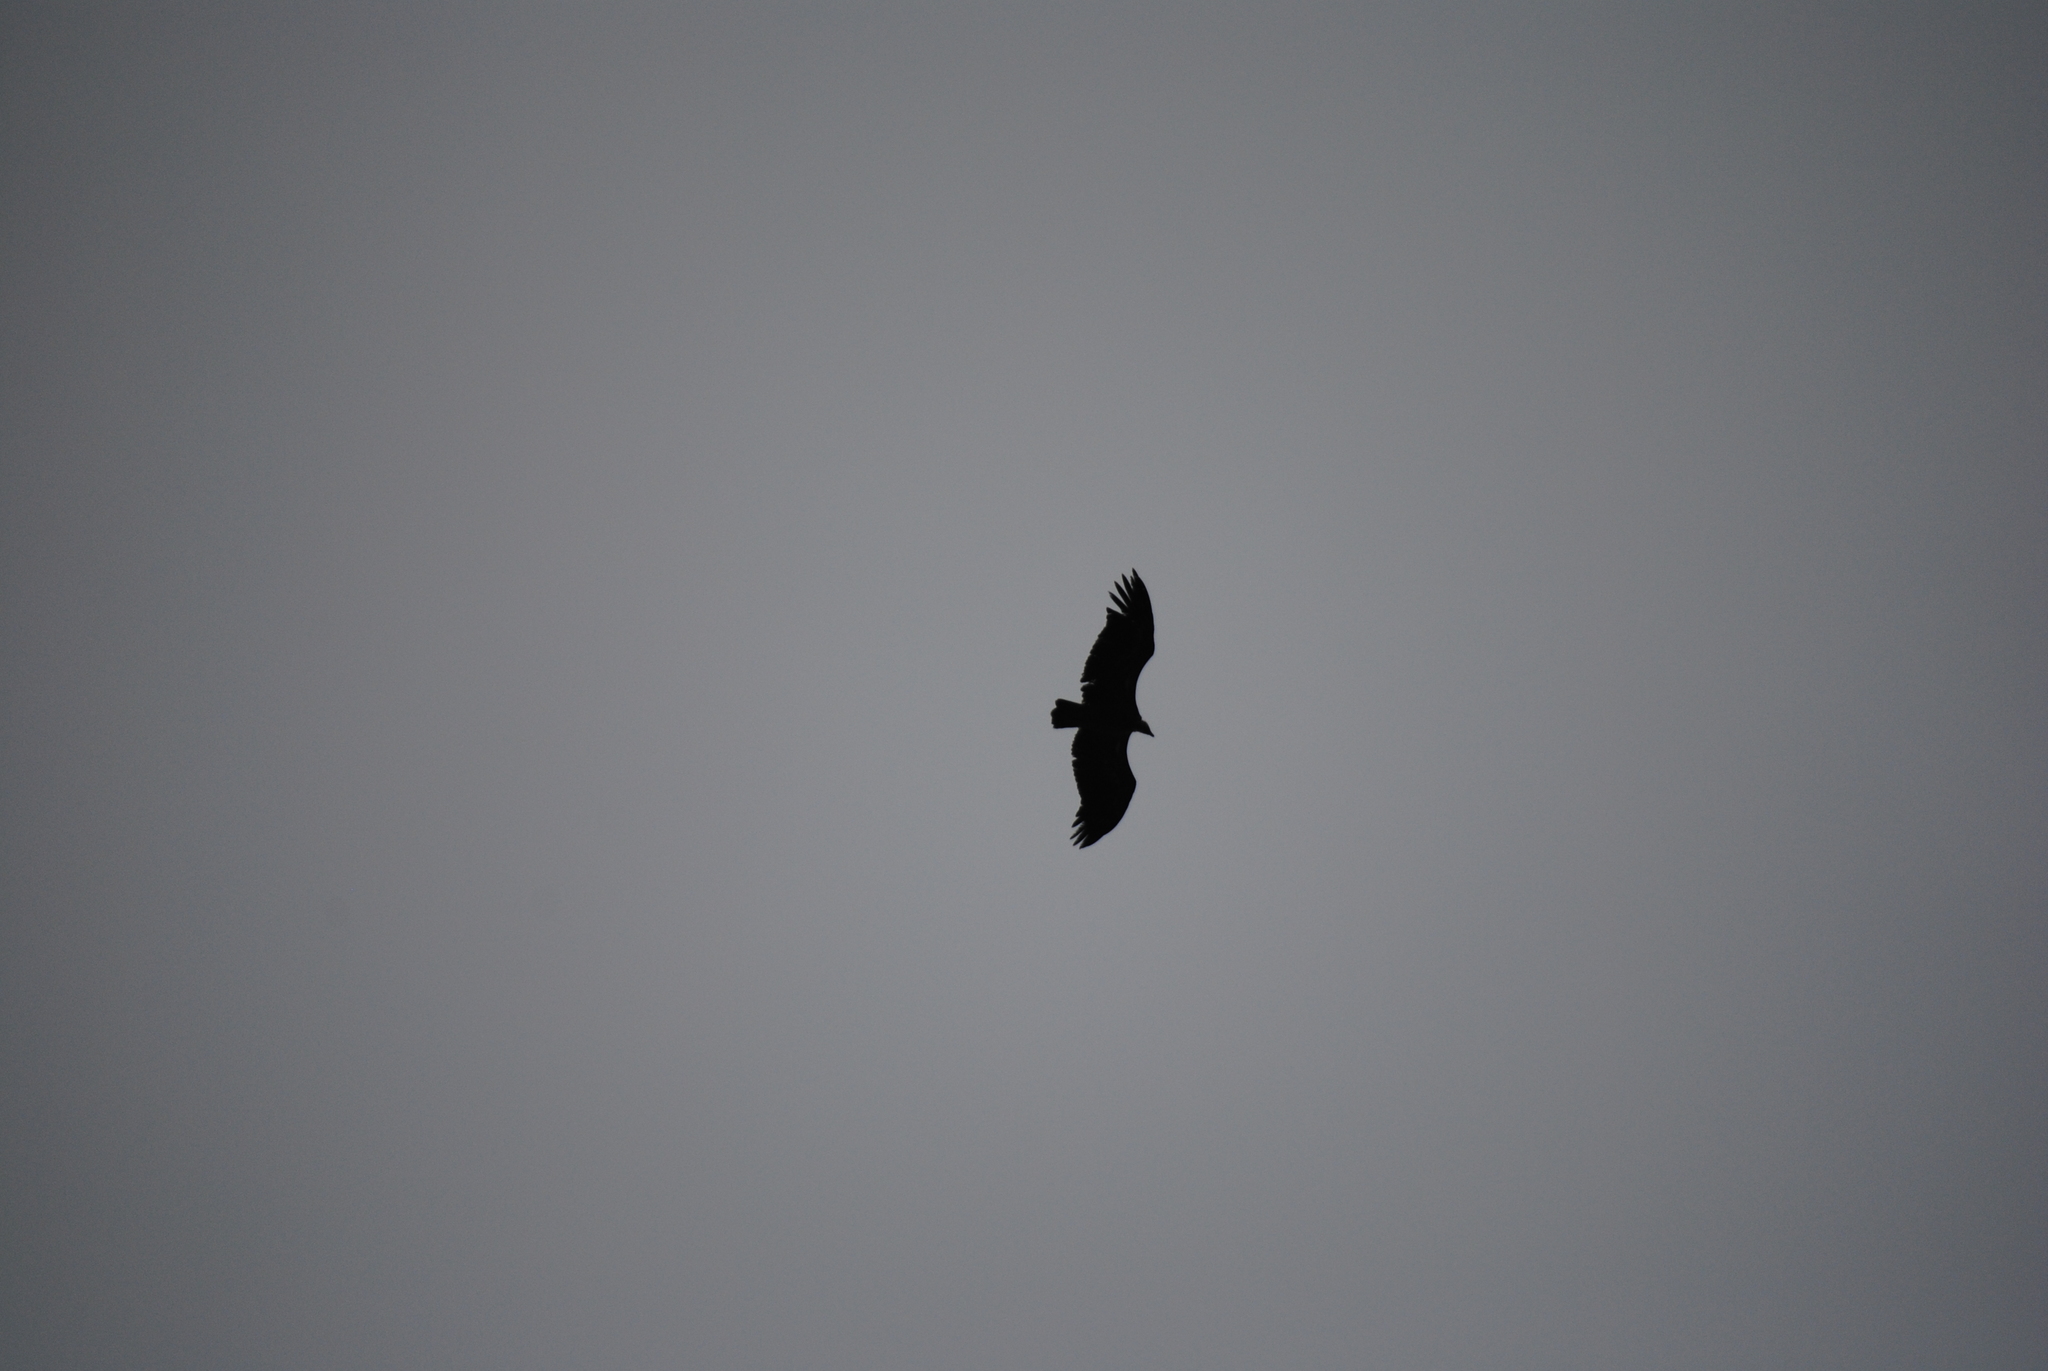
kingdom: Animalia
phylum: Chordata
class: Aves
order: Accipitriformes
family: Accipitridae
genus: Gyps
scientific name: Gyps fulvus
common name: Griffon vulture
